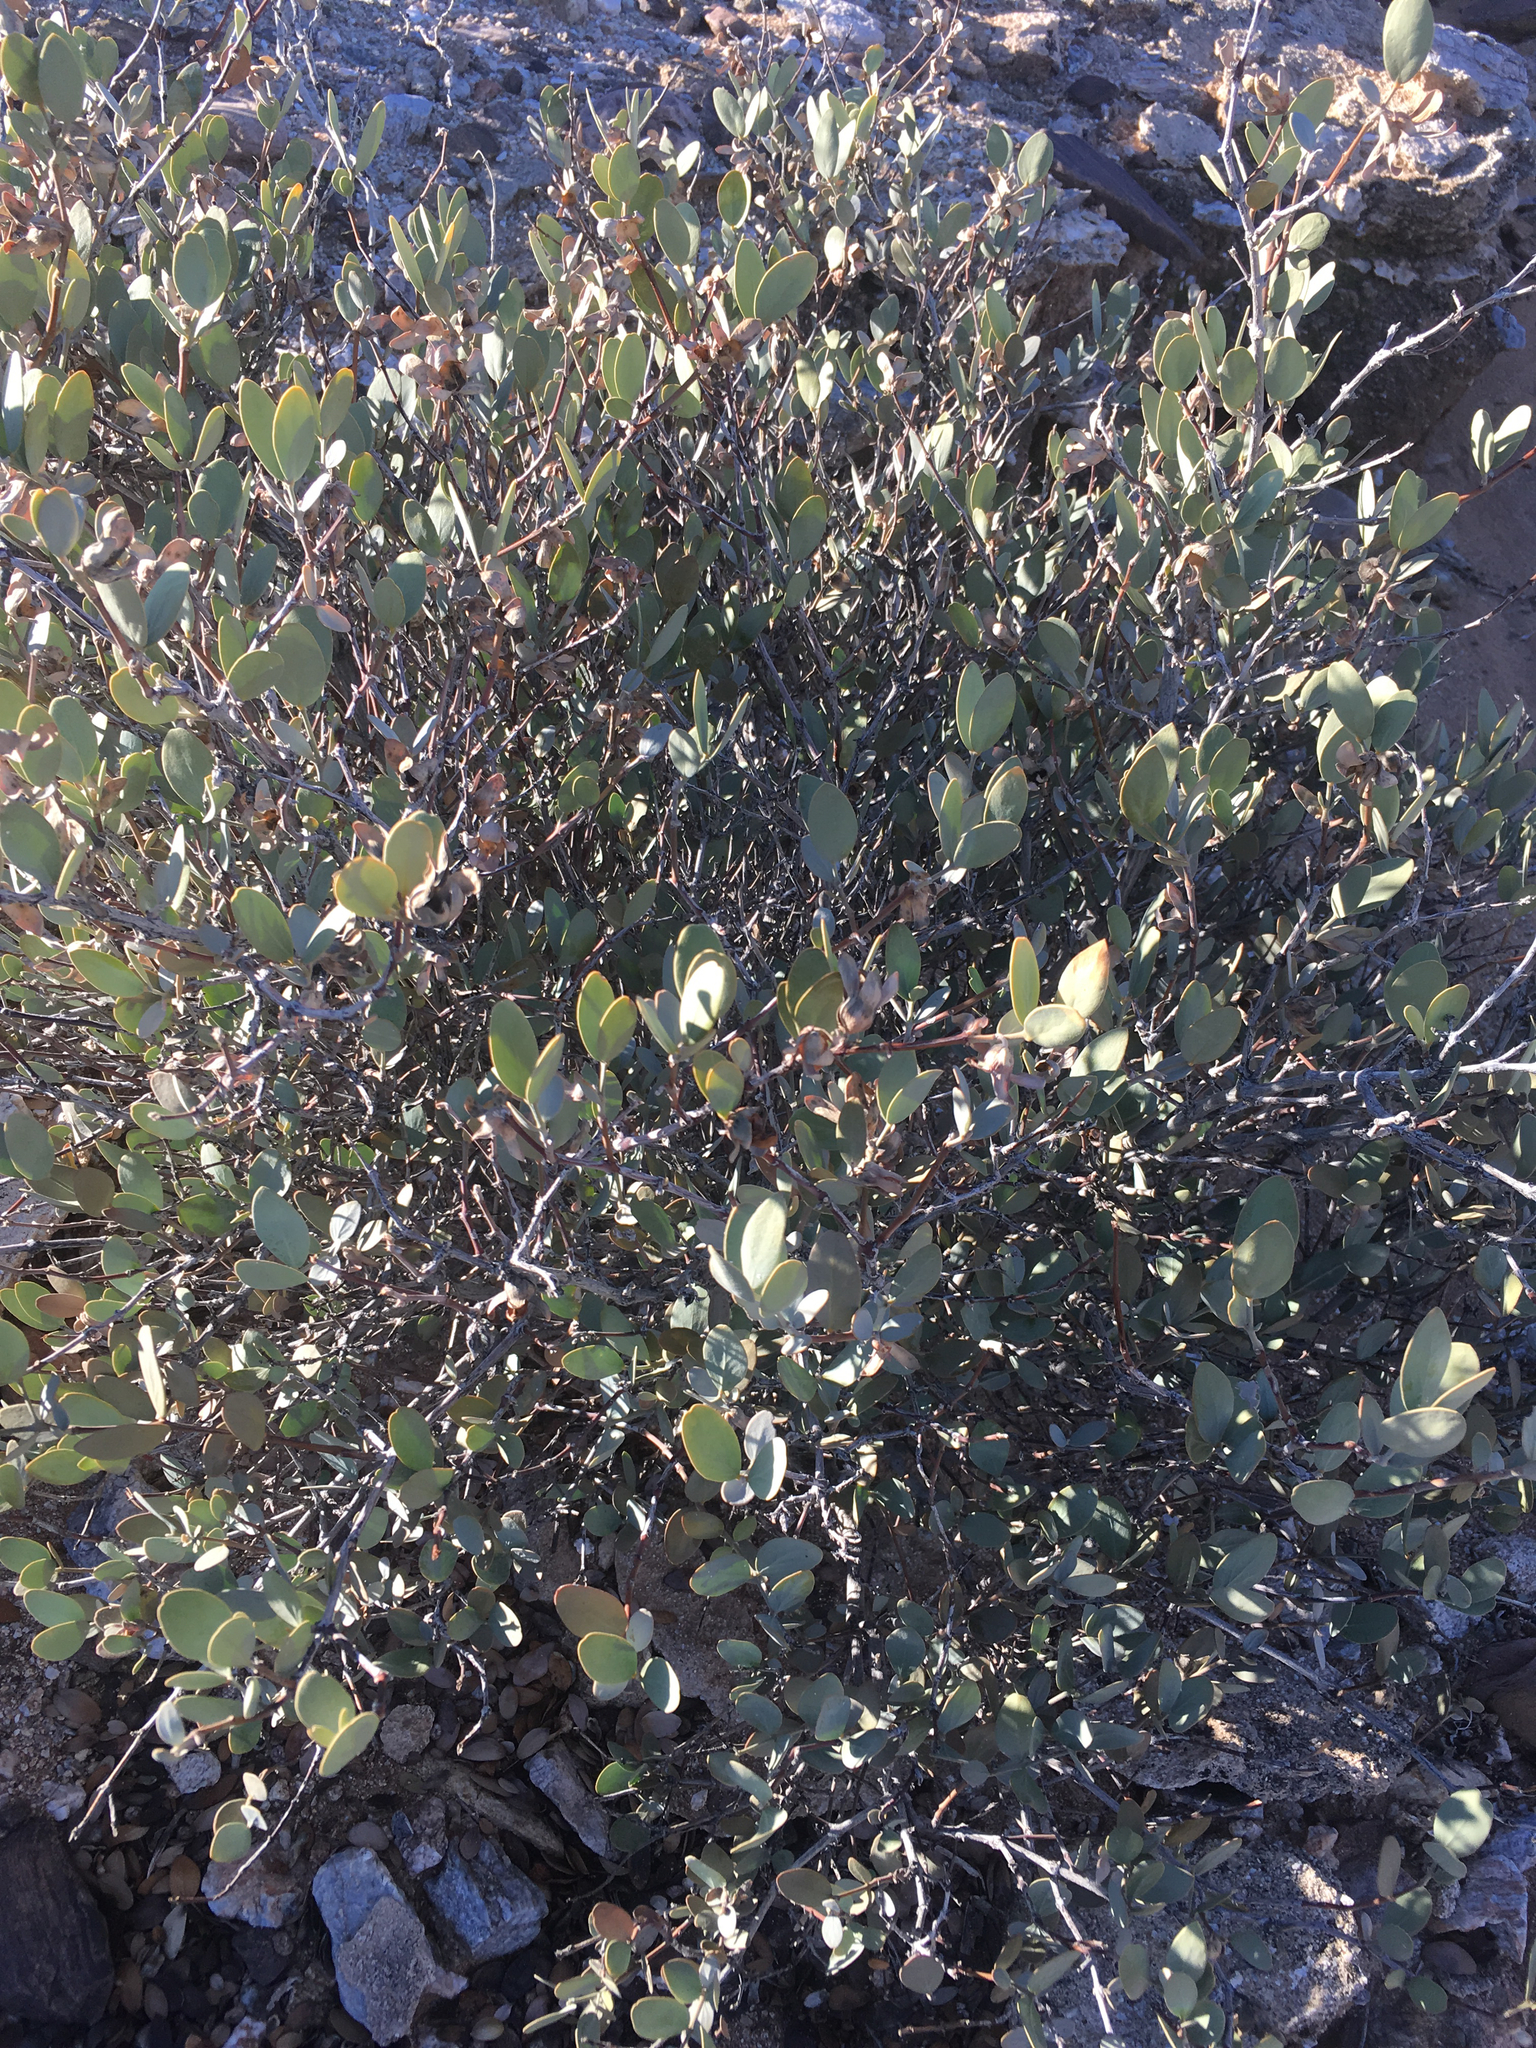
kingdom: Plantae
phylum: Tracheophyta
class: Magnoliopsida
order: Caryophyllales
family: Simmondsiaceae
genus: Simmondsia
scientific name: Simmondsia chinensis
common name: Jojoba
